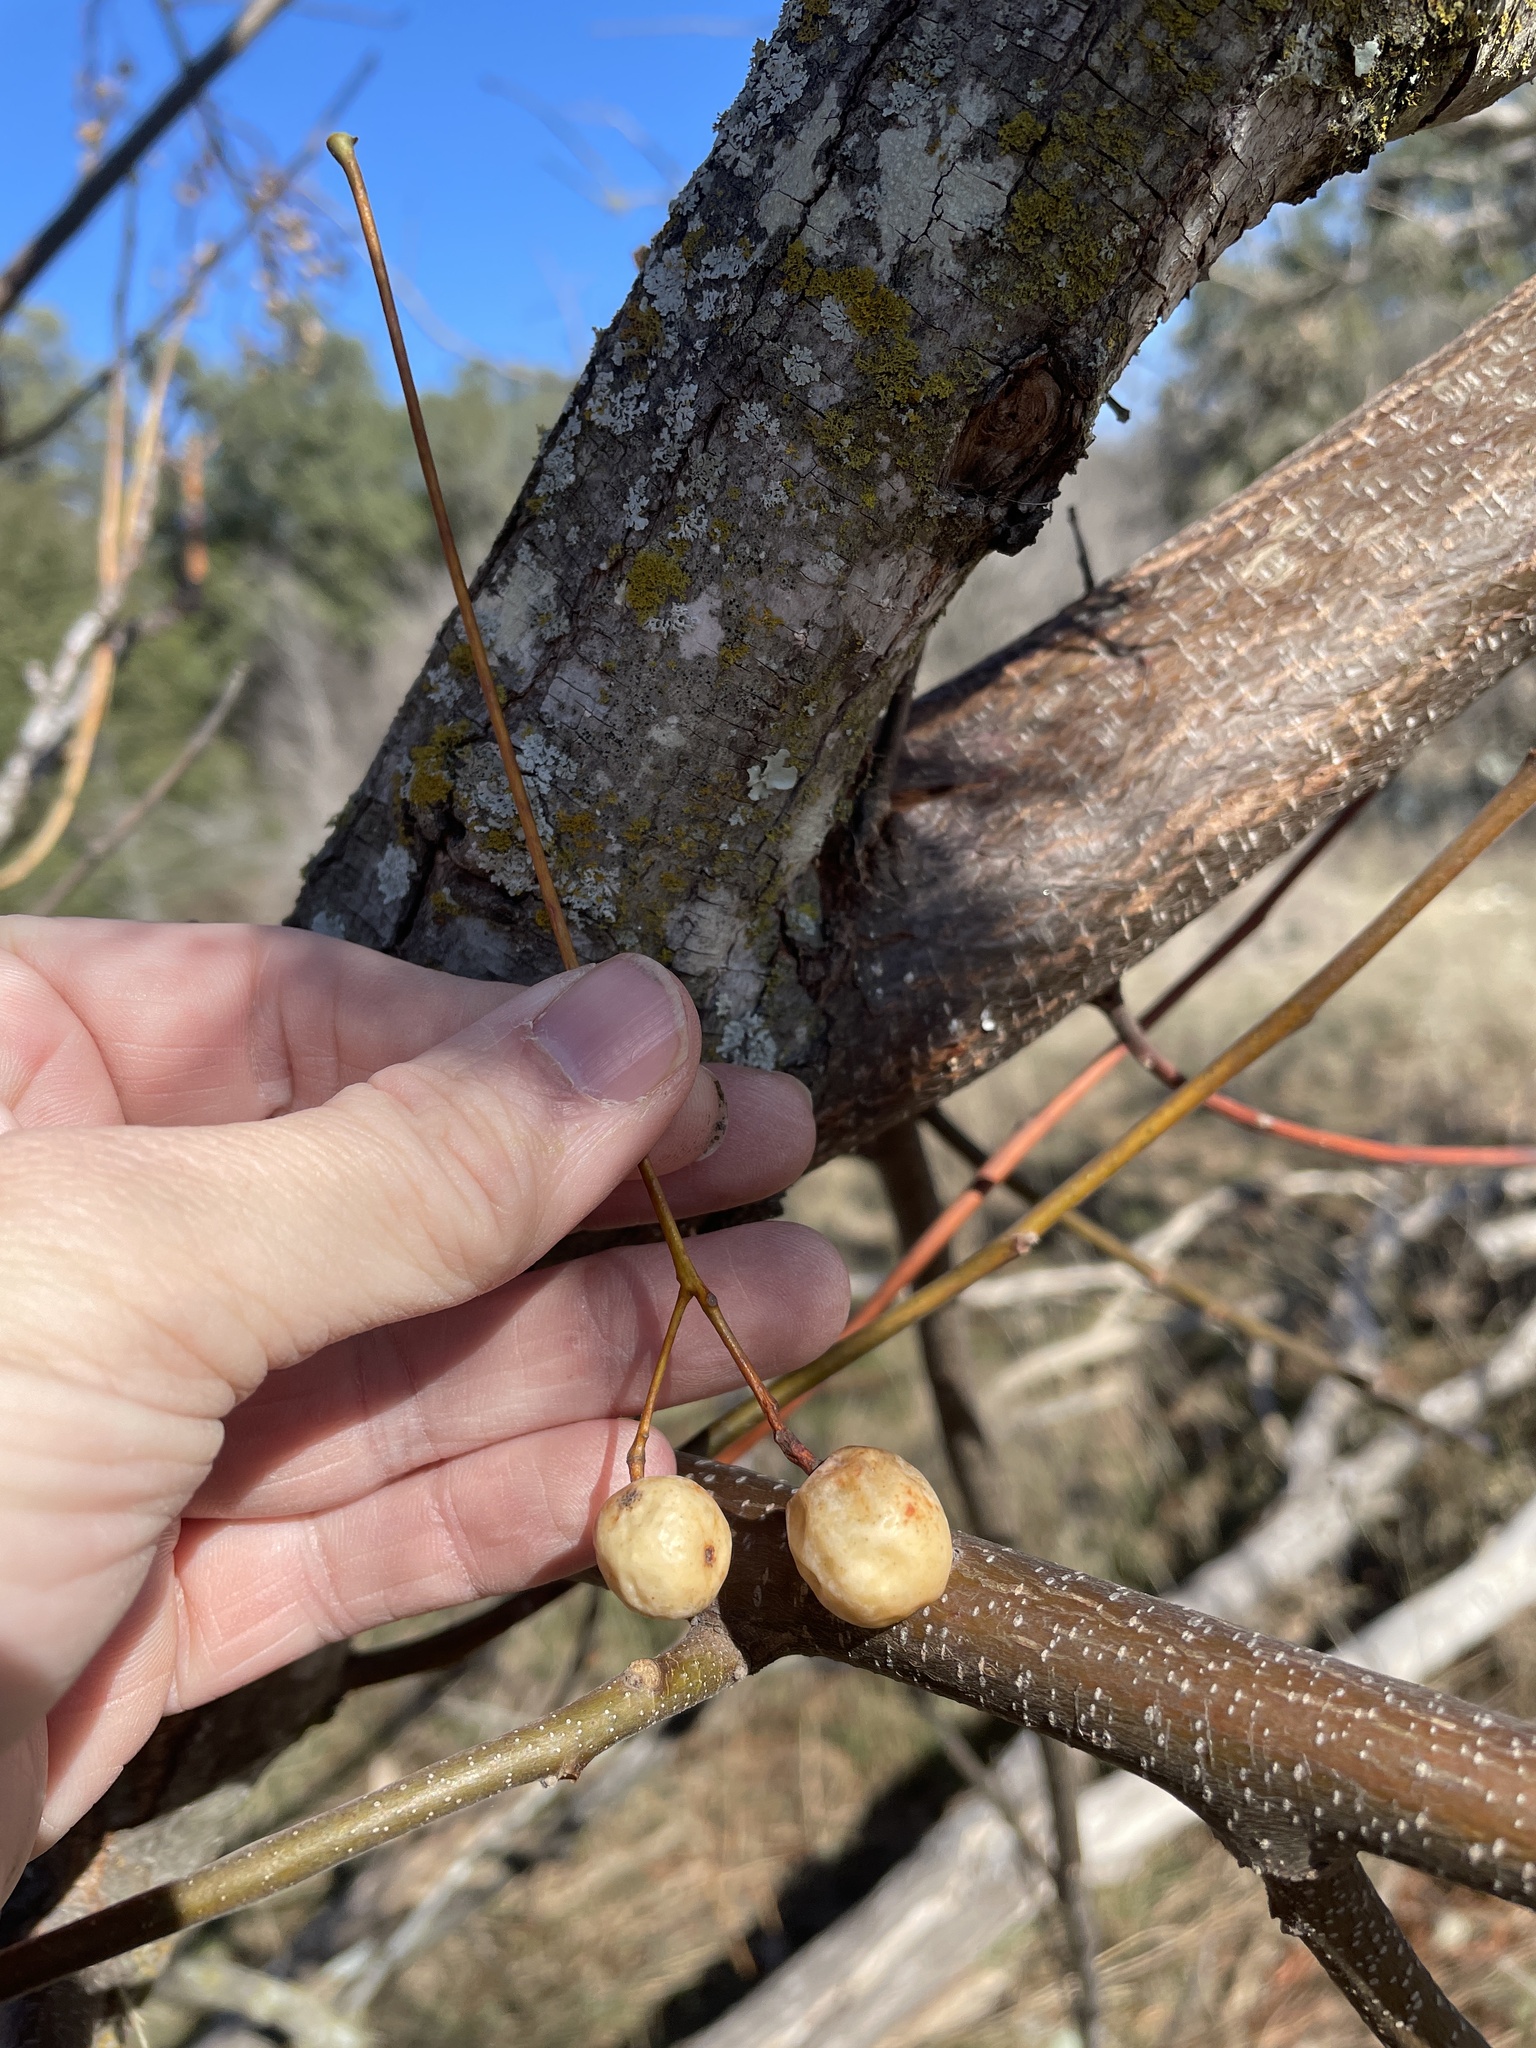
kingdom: Plantae
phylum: Tracheophyta
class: Magnoliopsida
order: Sapindales
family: Meliaceae
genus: Melia
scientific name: Melia azedarach
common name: Chinaberrytree
